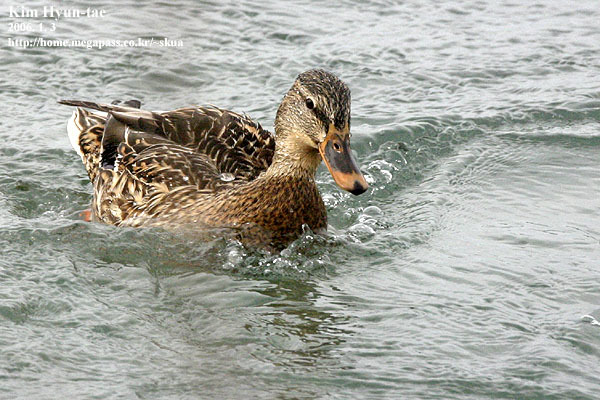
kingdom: Animalia
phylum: Chordata
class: Aves
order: Anseriformes
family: Anatidae
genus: Anas
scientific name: Anas platyrhynchos
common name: Mallard
